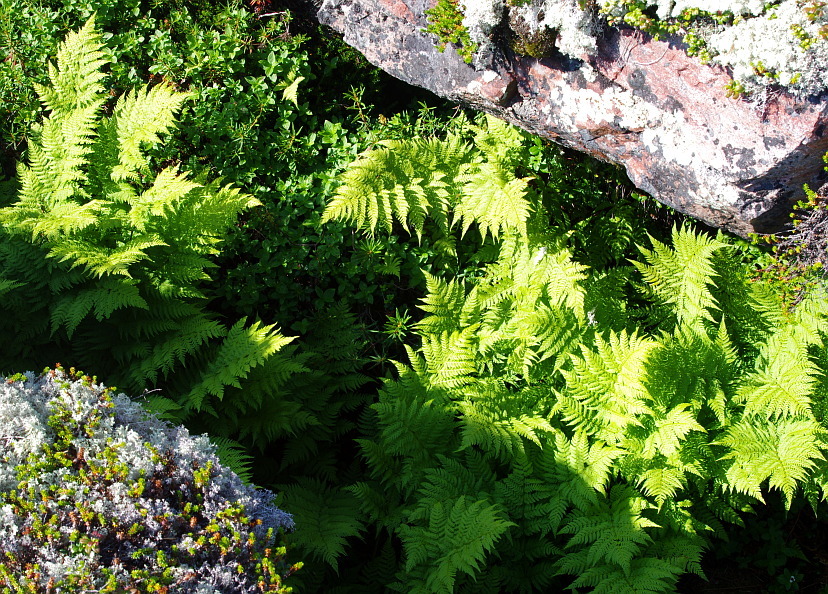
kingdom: Plantae
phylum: Tracheophyta
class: Polypodiopsida
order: Polypodiales
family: Athyriaceae
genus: Athyrium
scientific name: Athyrium filix-femina
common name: Lady fern
